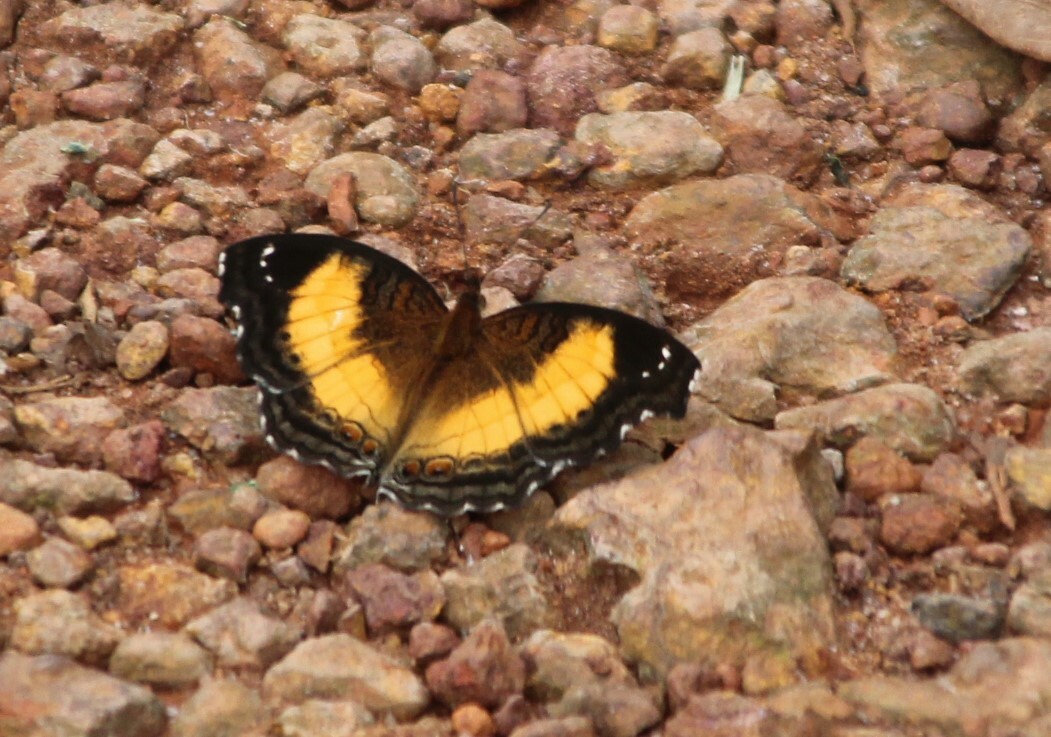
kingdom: Animalia
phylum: Arthropoda
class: Insecta
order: Lepidoptera
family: Nymphalidae
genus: Junonia
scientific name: Junonia terea
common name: Soldier pansy
